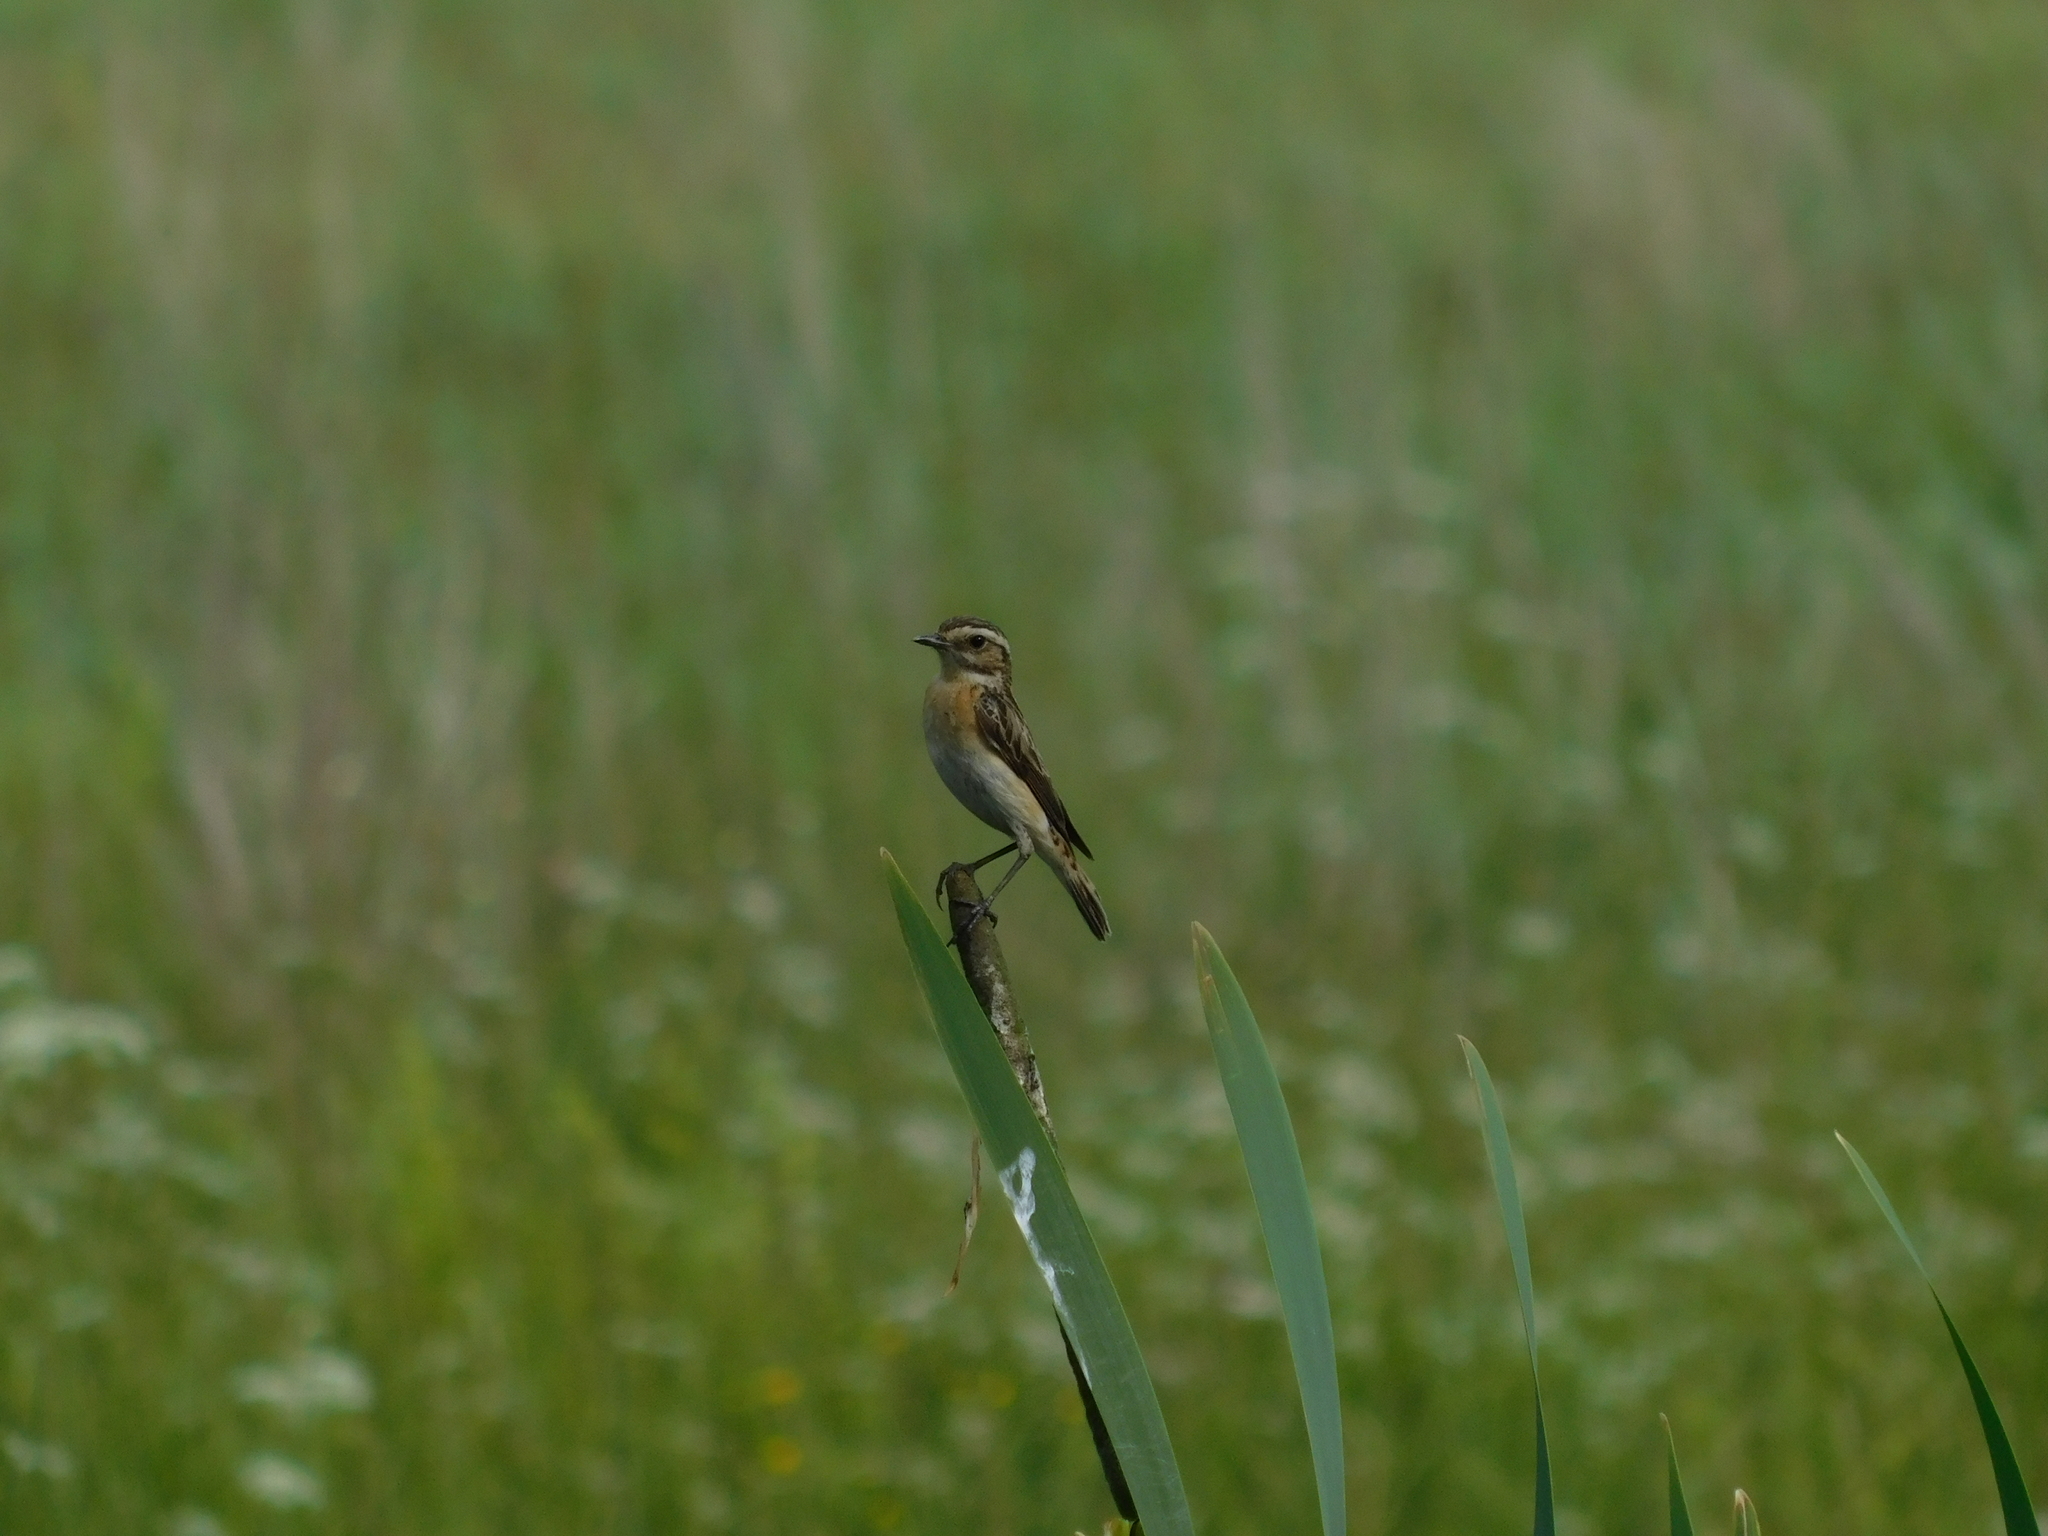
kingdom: Animalia
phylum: Chordata
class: Aves
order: Passeriformes
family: Muscicapidae
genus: Saxicola
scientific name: Saxicola rubetra
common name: Whinchat
